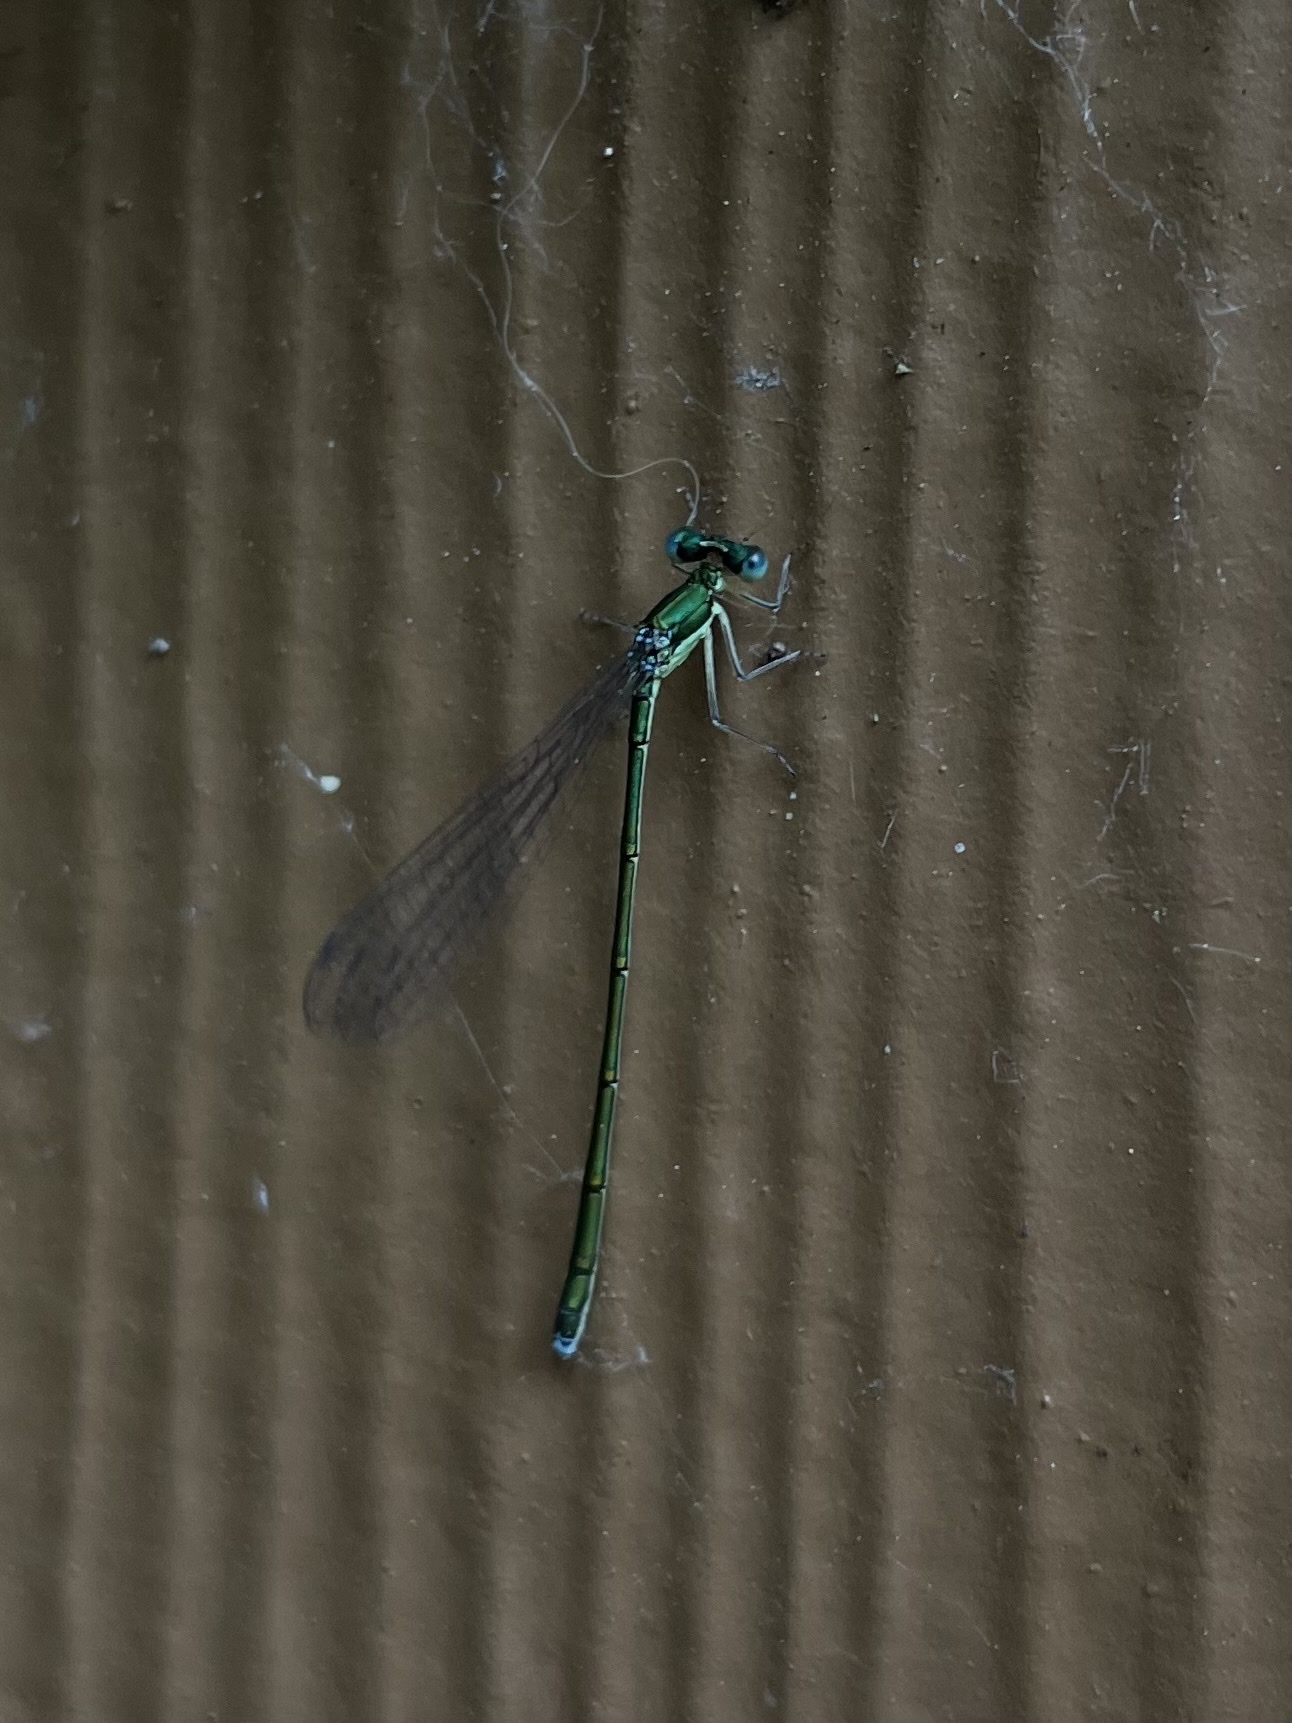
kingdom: Animalia
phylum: Arthropoda
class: Insecta
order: Odonata
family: Coenagrionidae
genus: Nehalennia
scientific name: Nehalennia irene
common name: Sedge sprite
